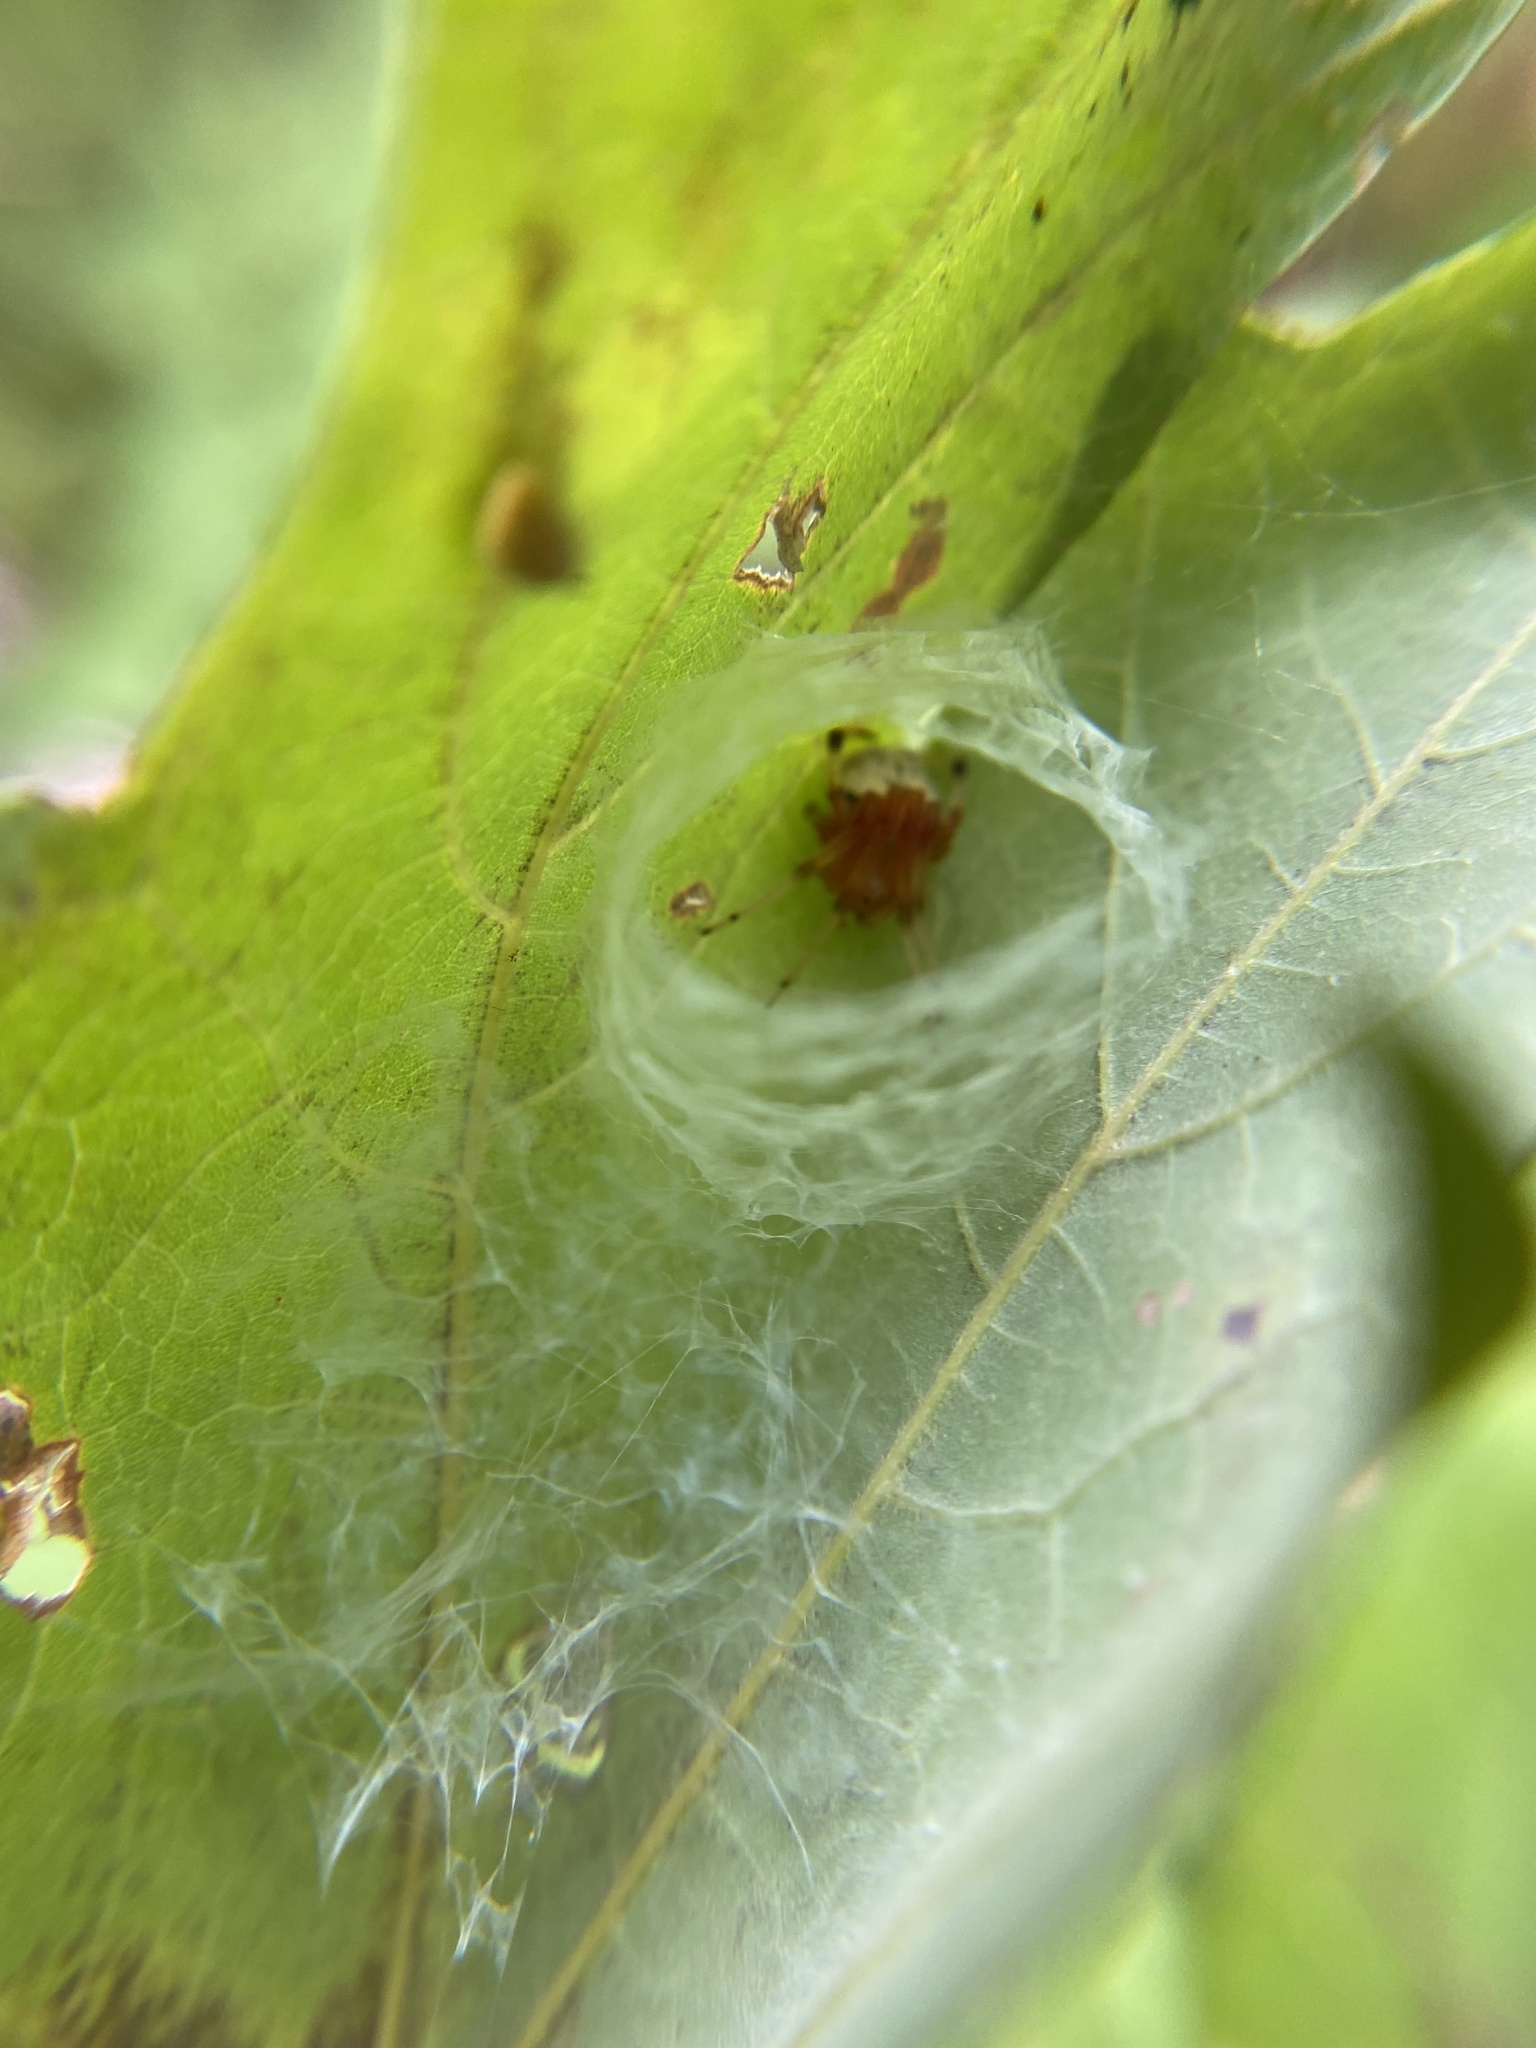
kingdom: Animalia
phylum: Arthropoda
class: Arachnida
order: Araneae
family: Araneidae
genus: Araneus
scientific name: Araneus thaddeus
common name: Lattice orbweaver
